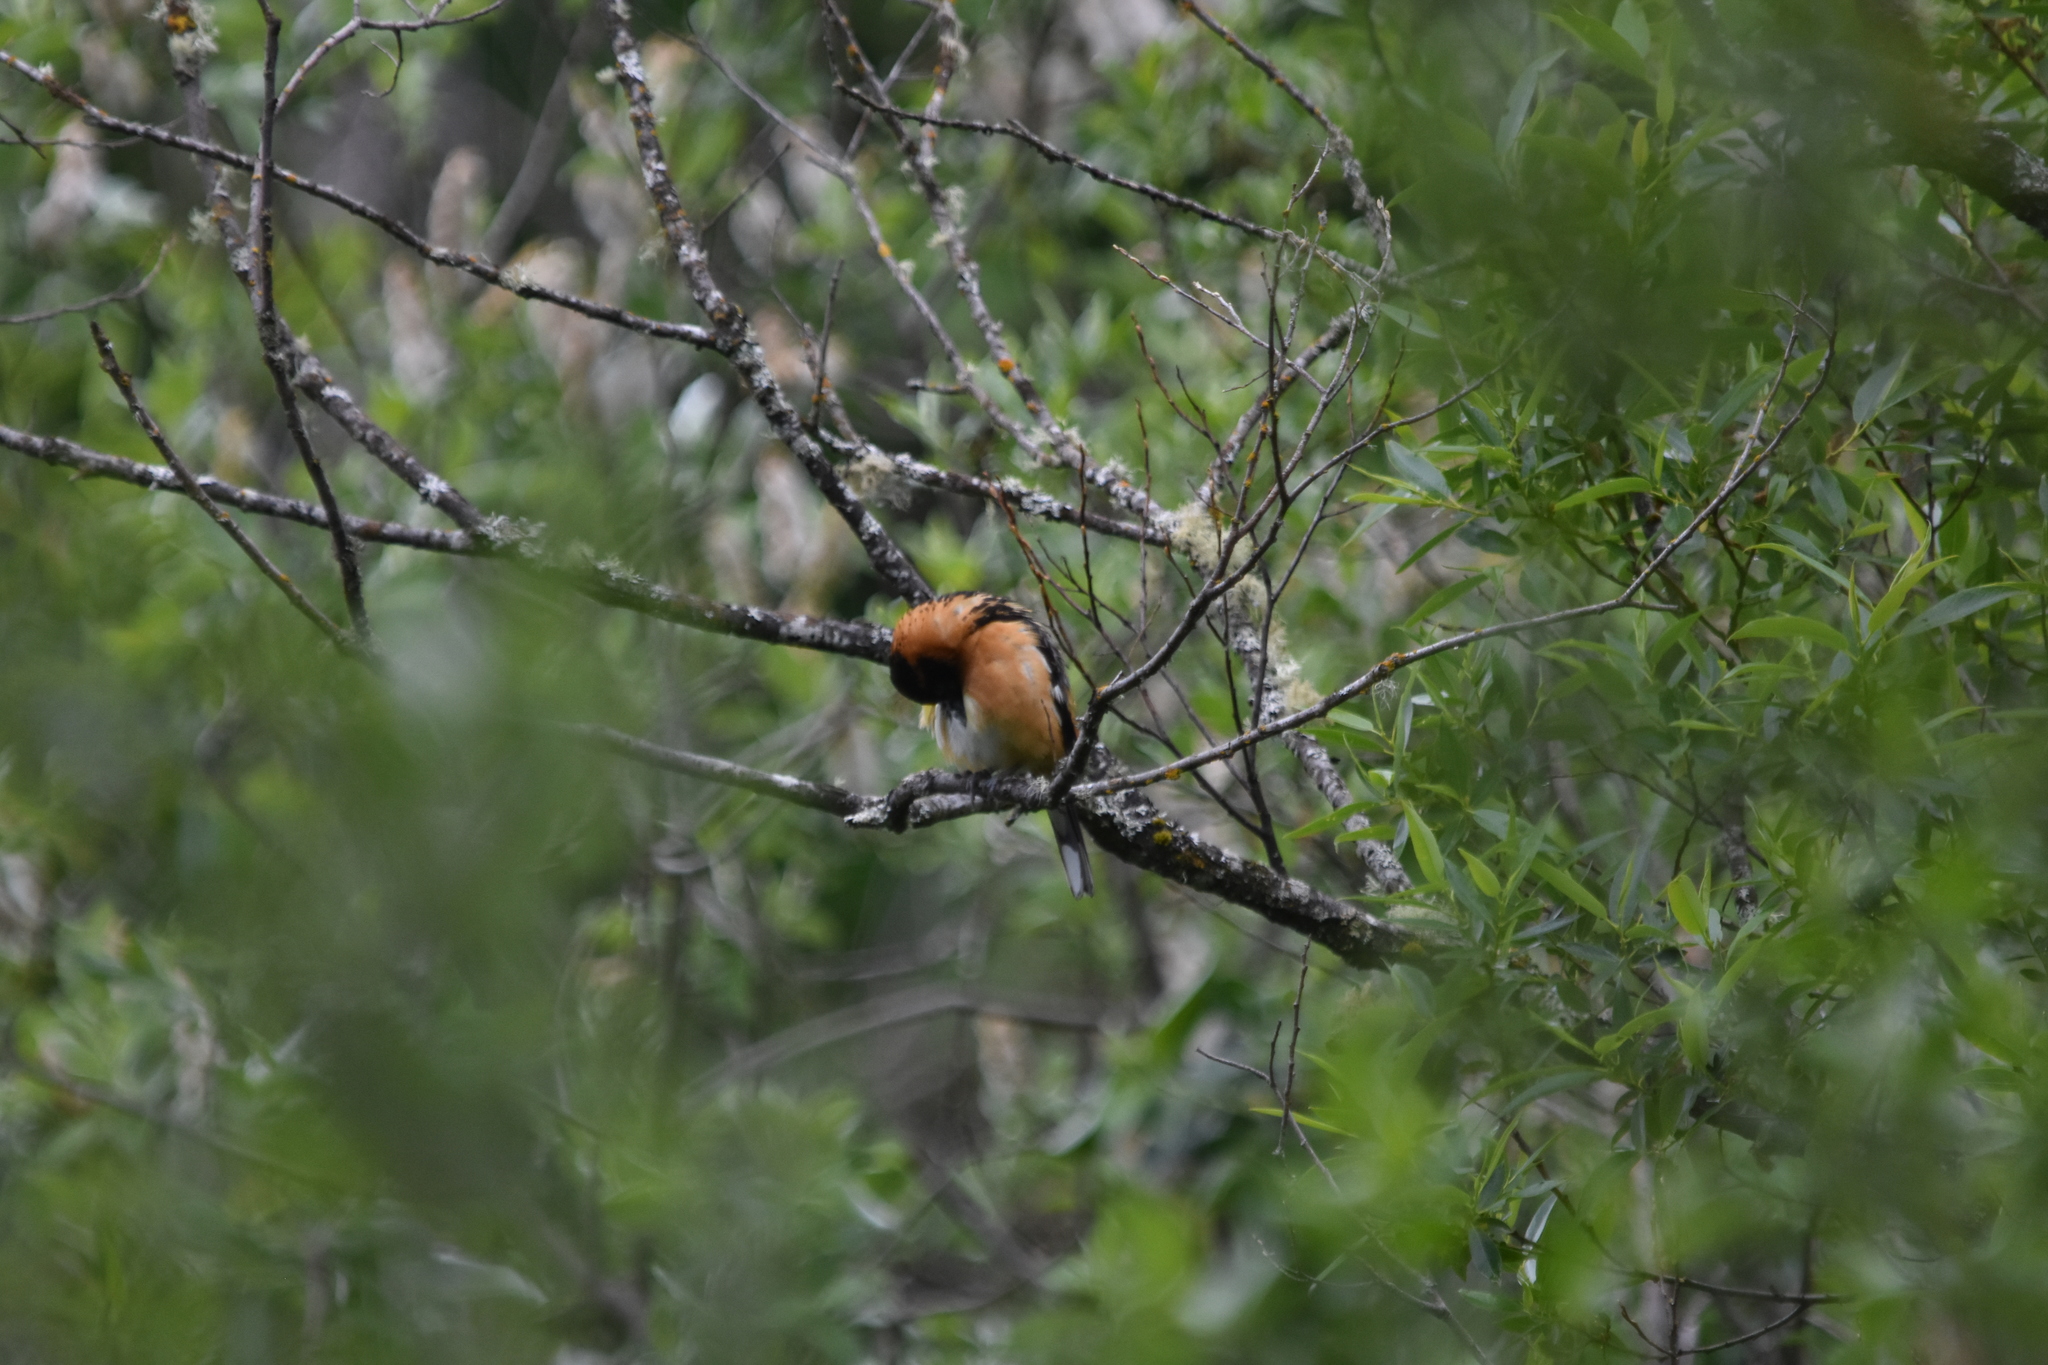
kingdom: Animalia
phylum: Chordata
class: Aves
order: Passeriformes
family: Cardinalidae
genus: Pheucticus
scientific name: Pheucticus melanocephalus
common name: Black-headed grosbeak
